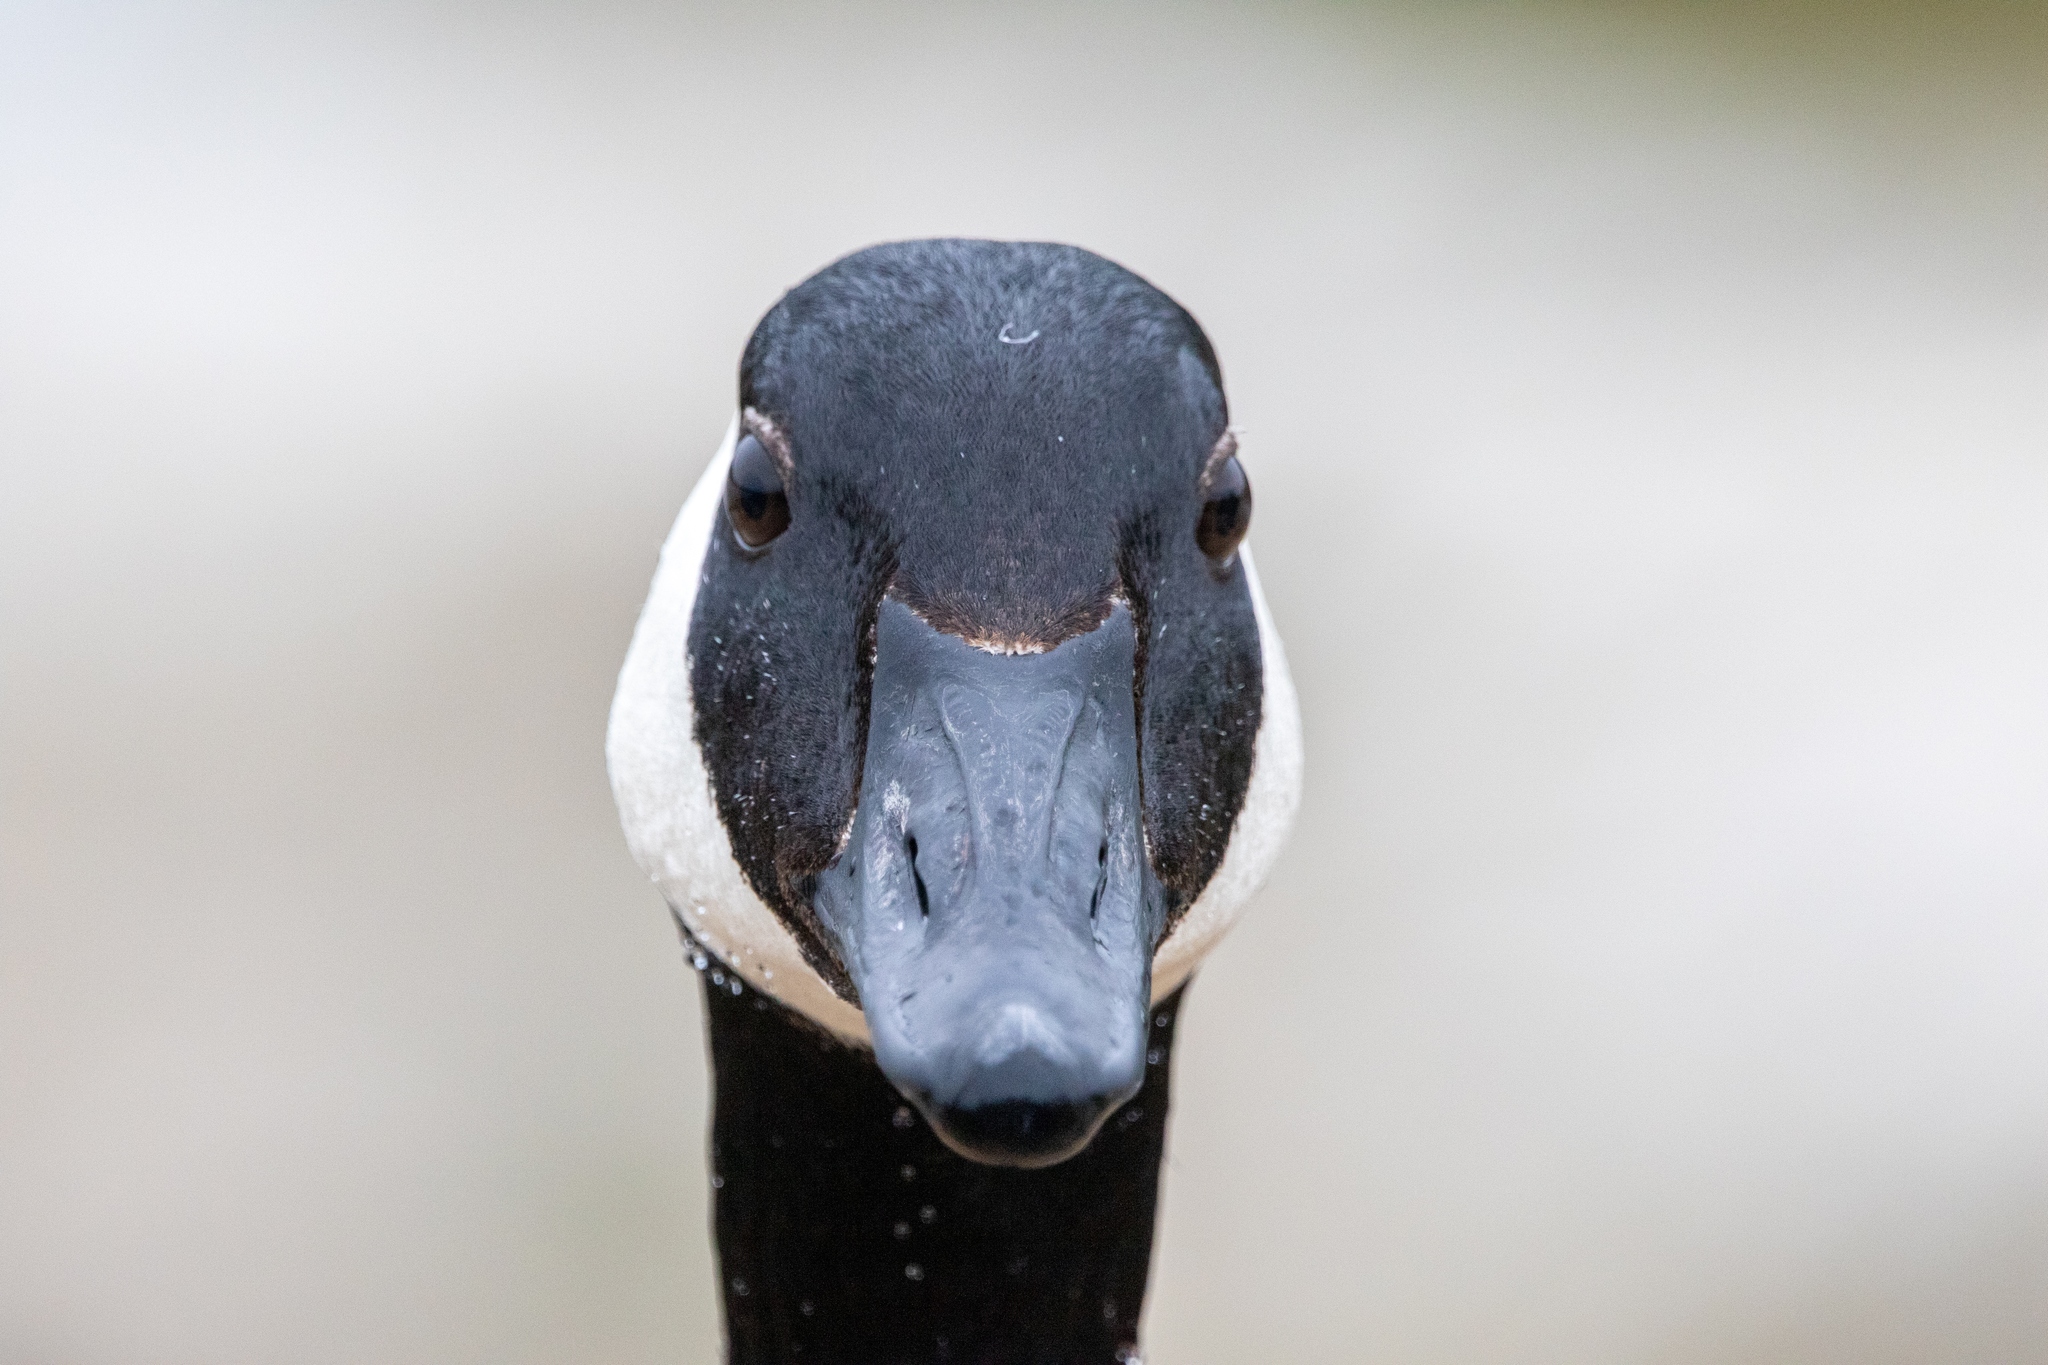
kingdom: Animalia
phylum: Chordata
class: Aves
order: Anseriformes
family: Anatidae
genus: Branta
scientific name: Branta canadensis
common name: Canada goose
